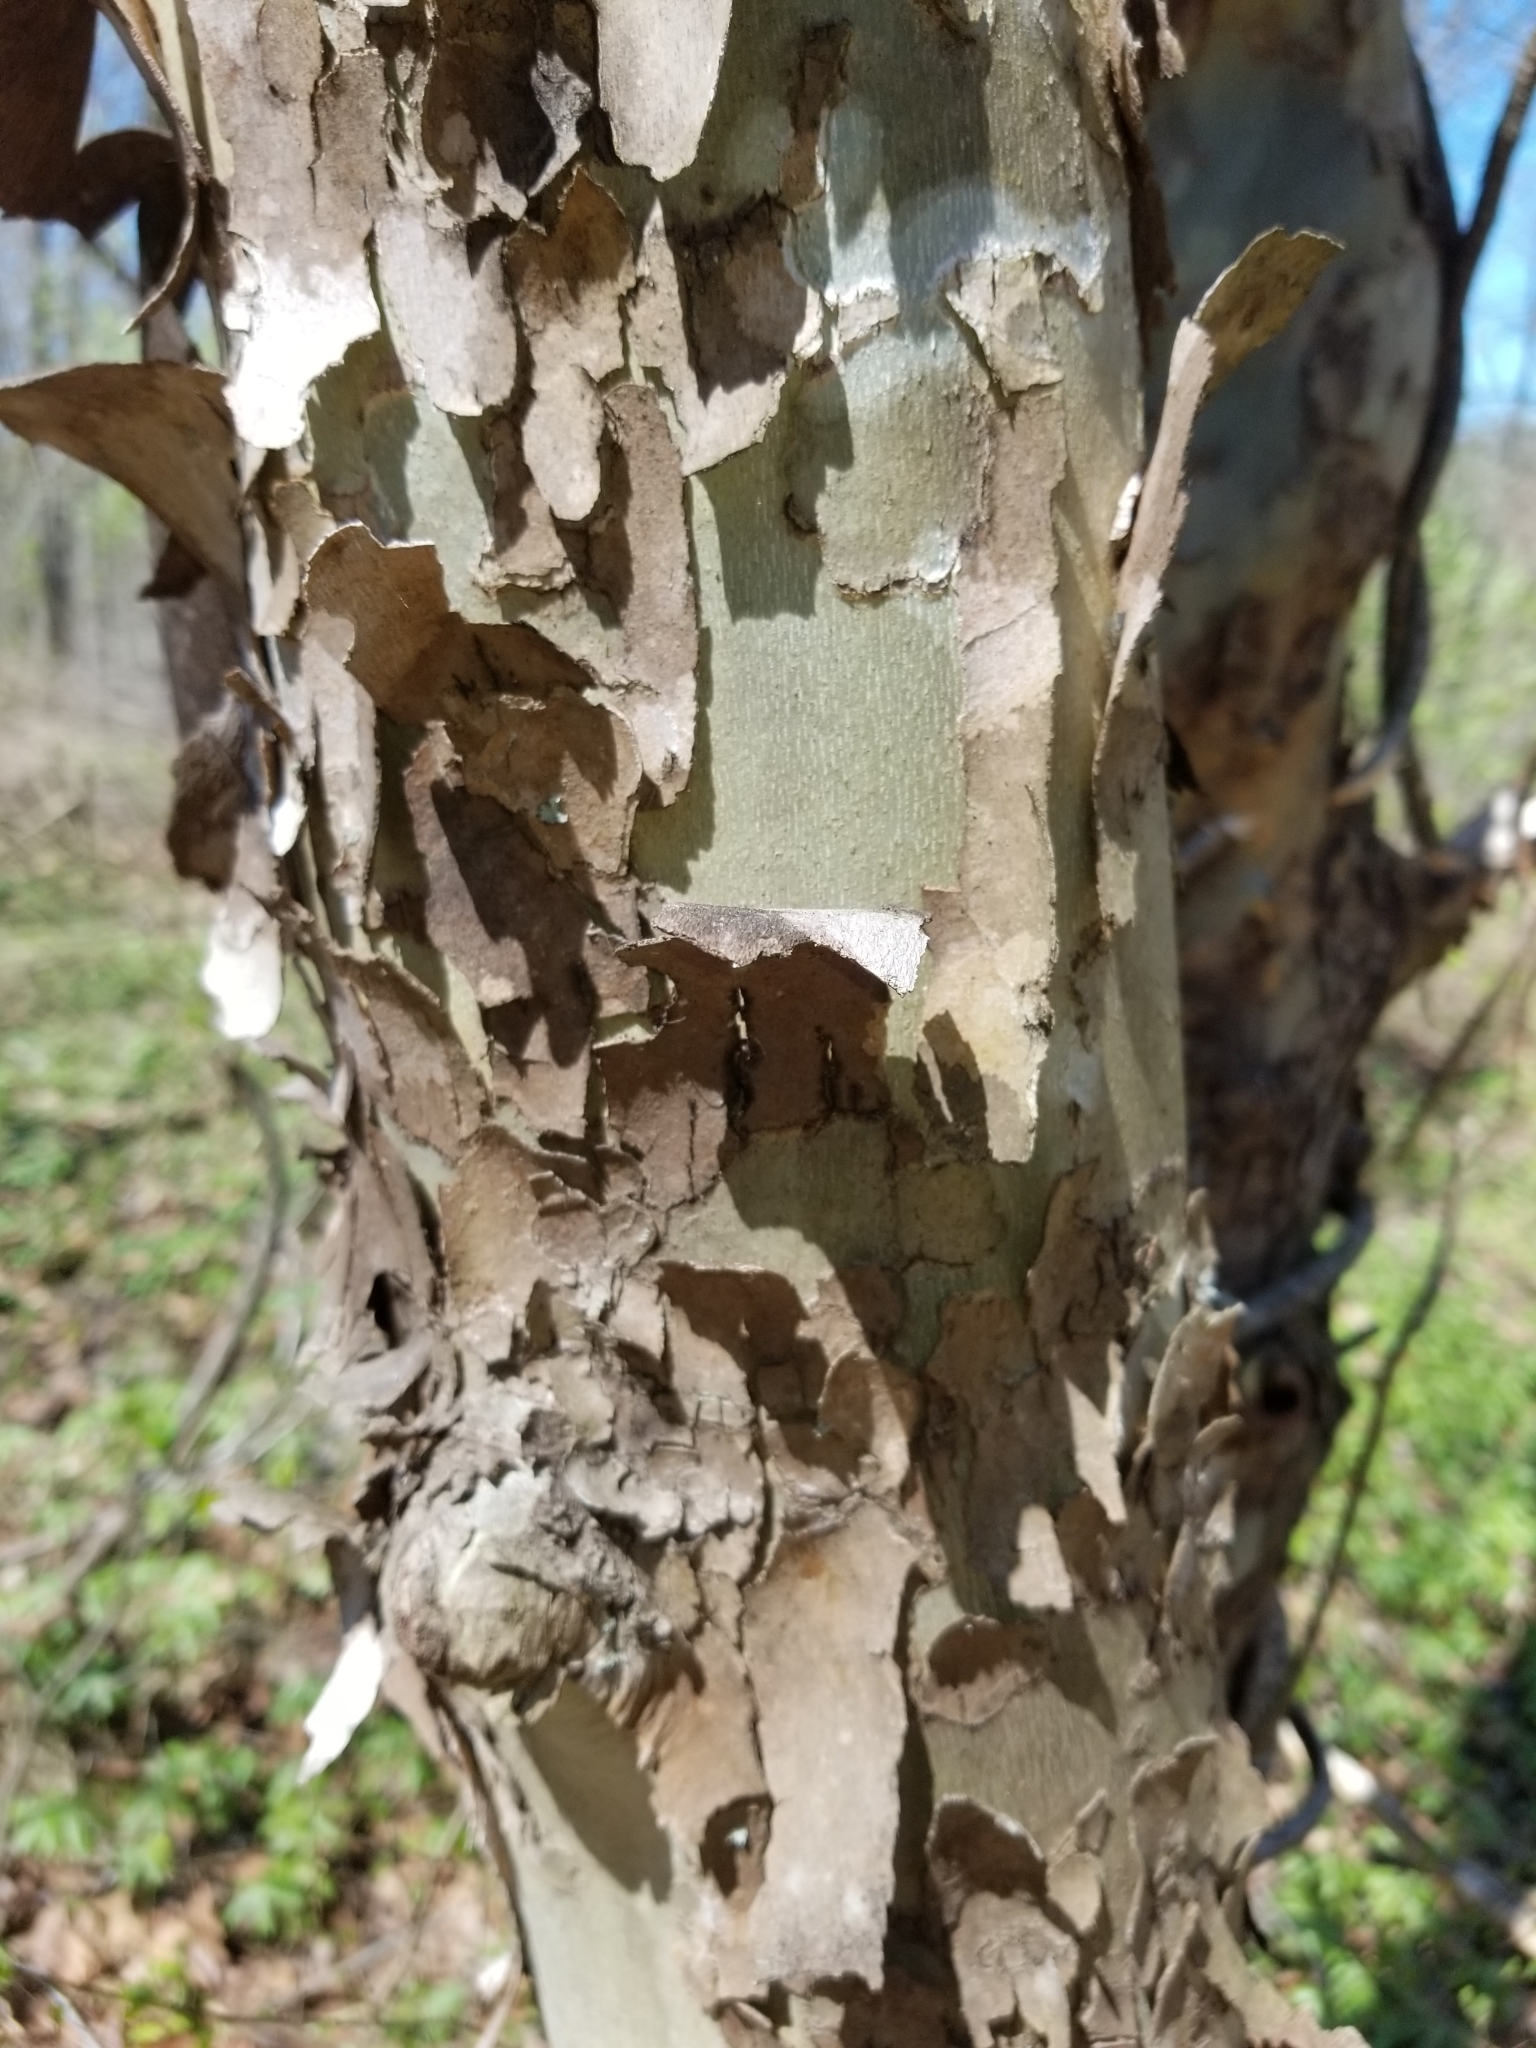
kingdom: Plantae
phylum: Tracheophyta
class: Magnoliopsida
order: Proteales
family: Platanaceae
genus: Platanus
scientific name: Platanus occidentalis
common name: American sycamore
